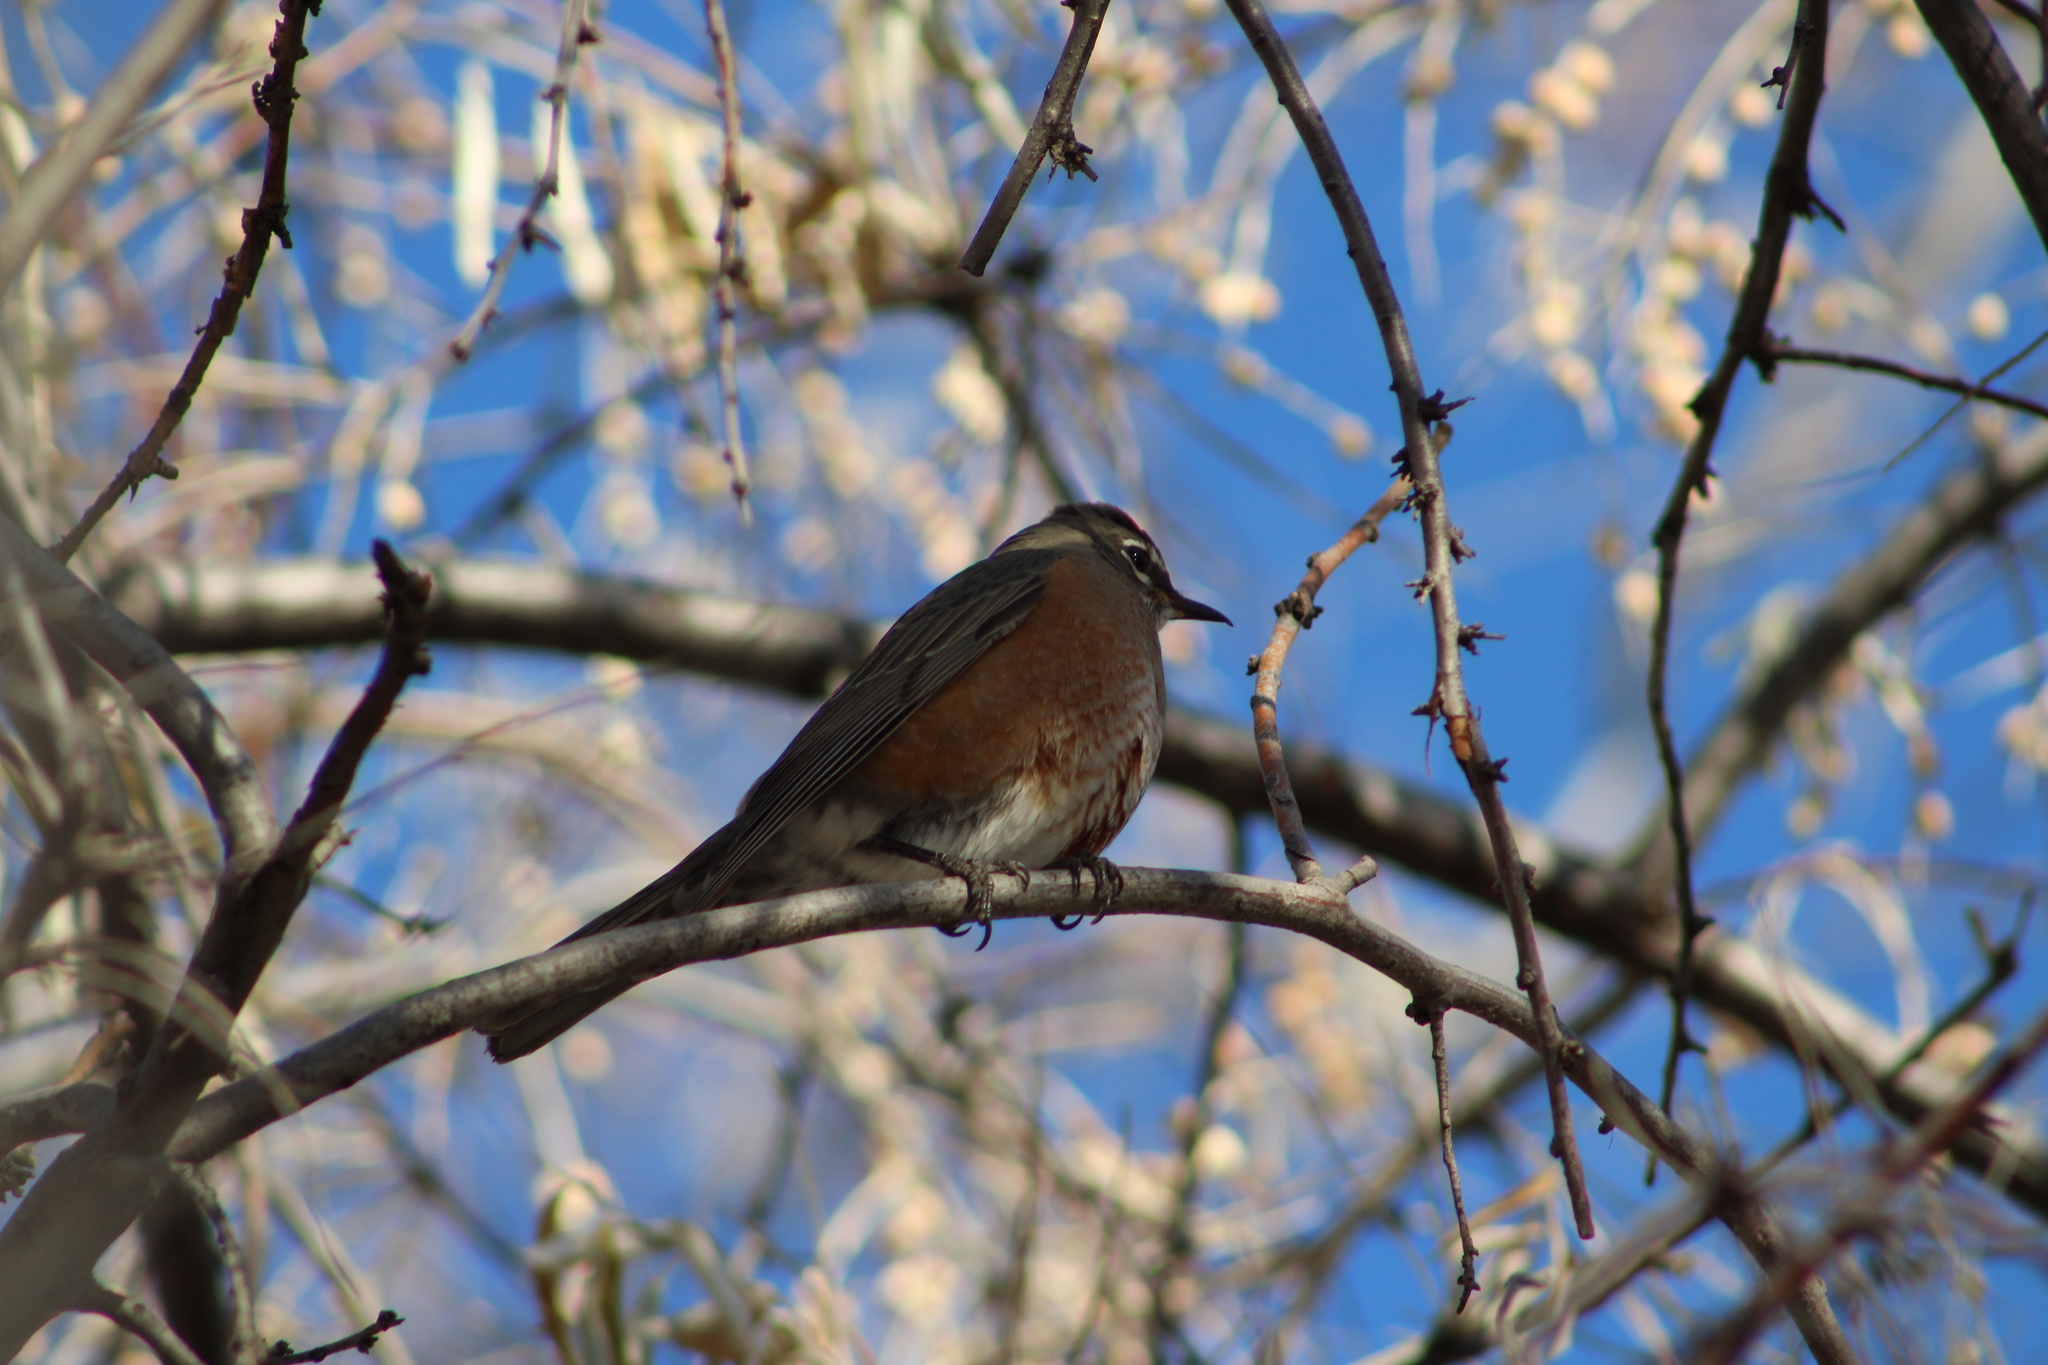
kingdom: Animalia
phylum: Chordata
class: Aves
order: Passeriformes
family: Turdidae
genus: Turdus
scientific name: Turdus migratorius
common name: American robin
